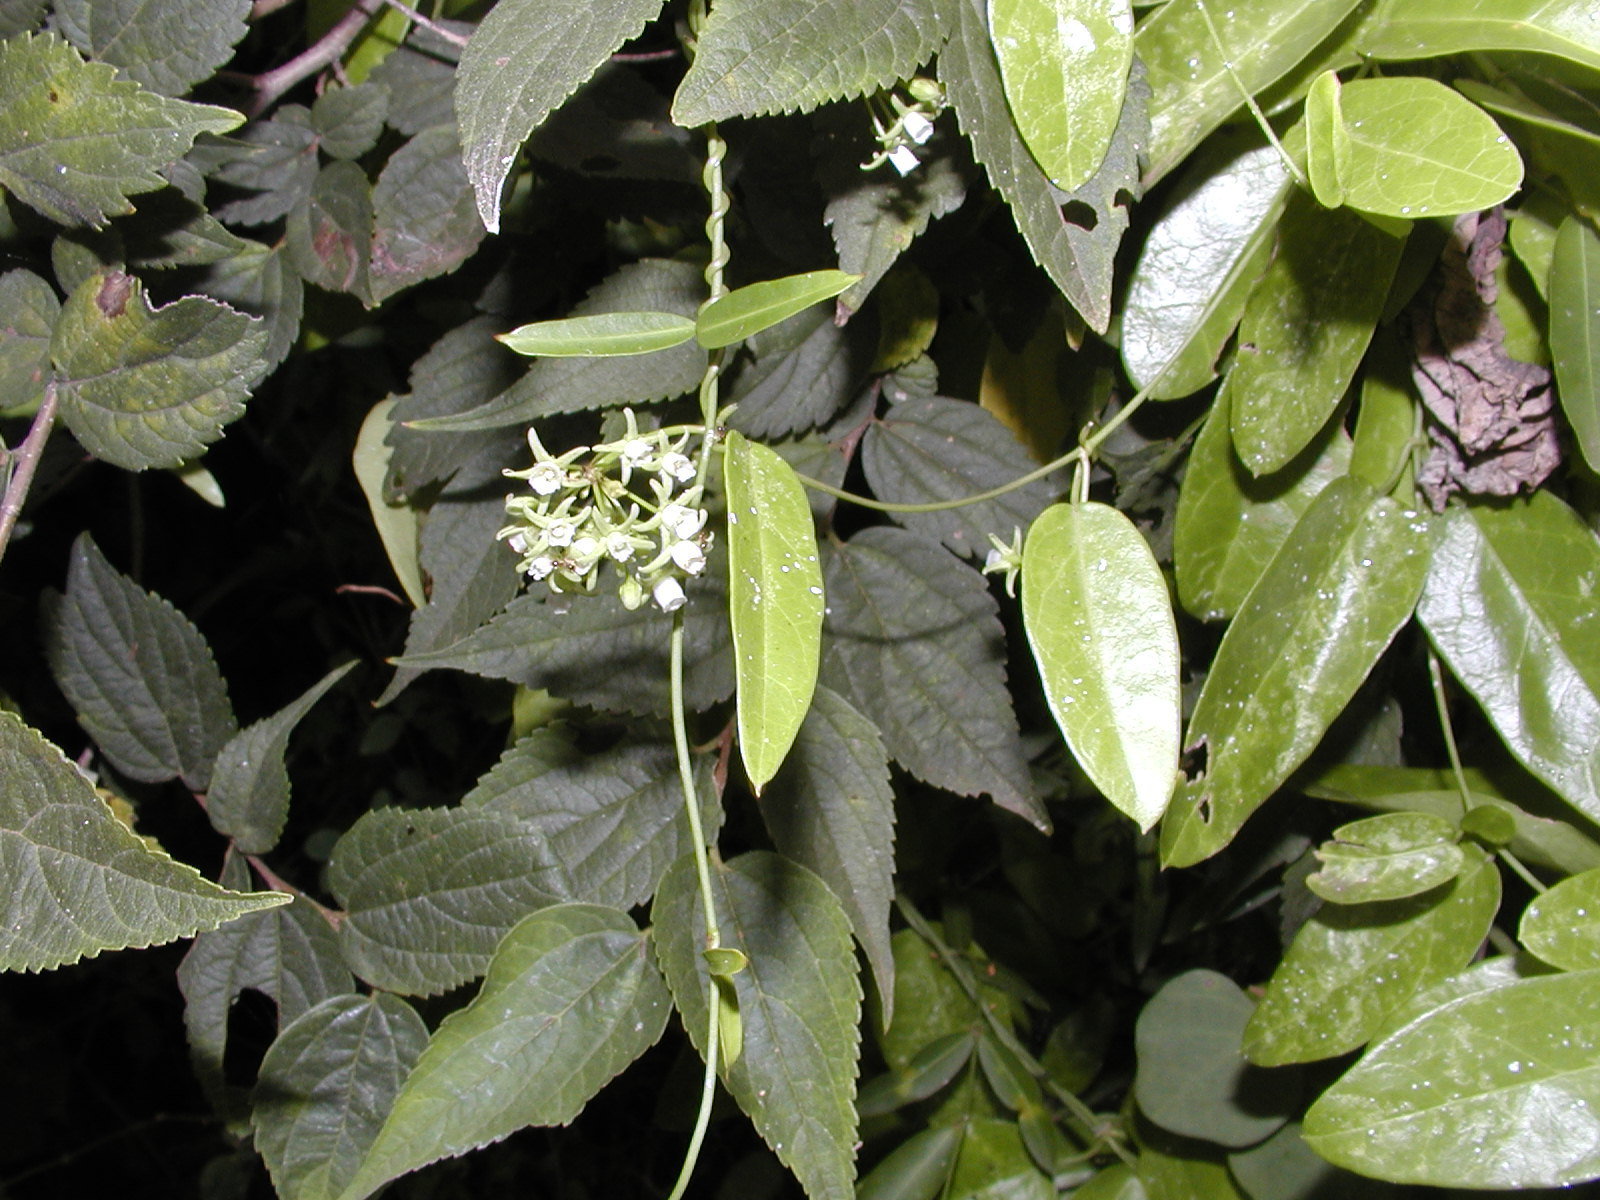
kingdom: Plantae
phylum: Tracheophyta
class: Magnoliopsida
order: Gentianales
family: Apocynaceae
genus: Cynanchum
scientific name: Cynanchum ellipticum
